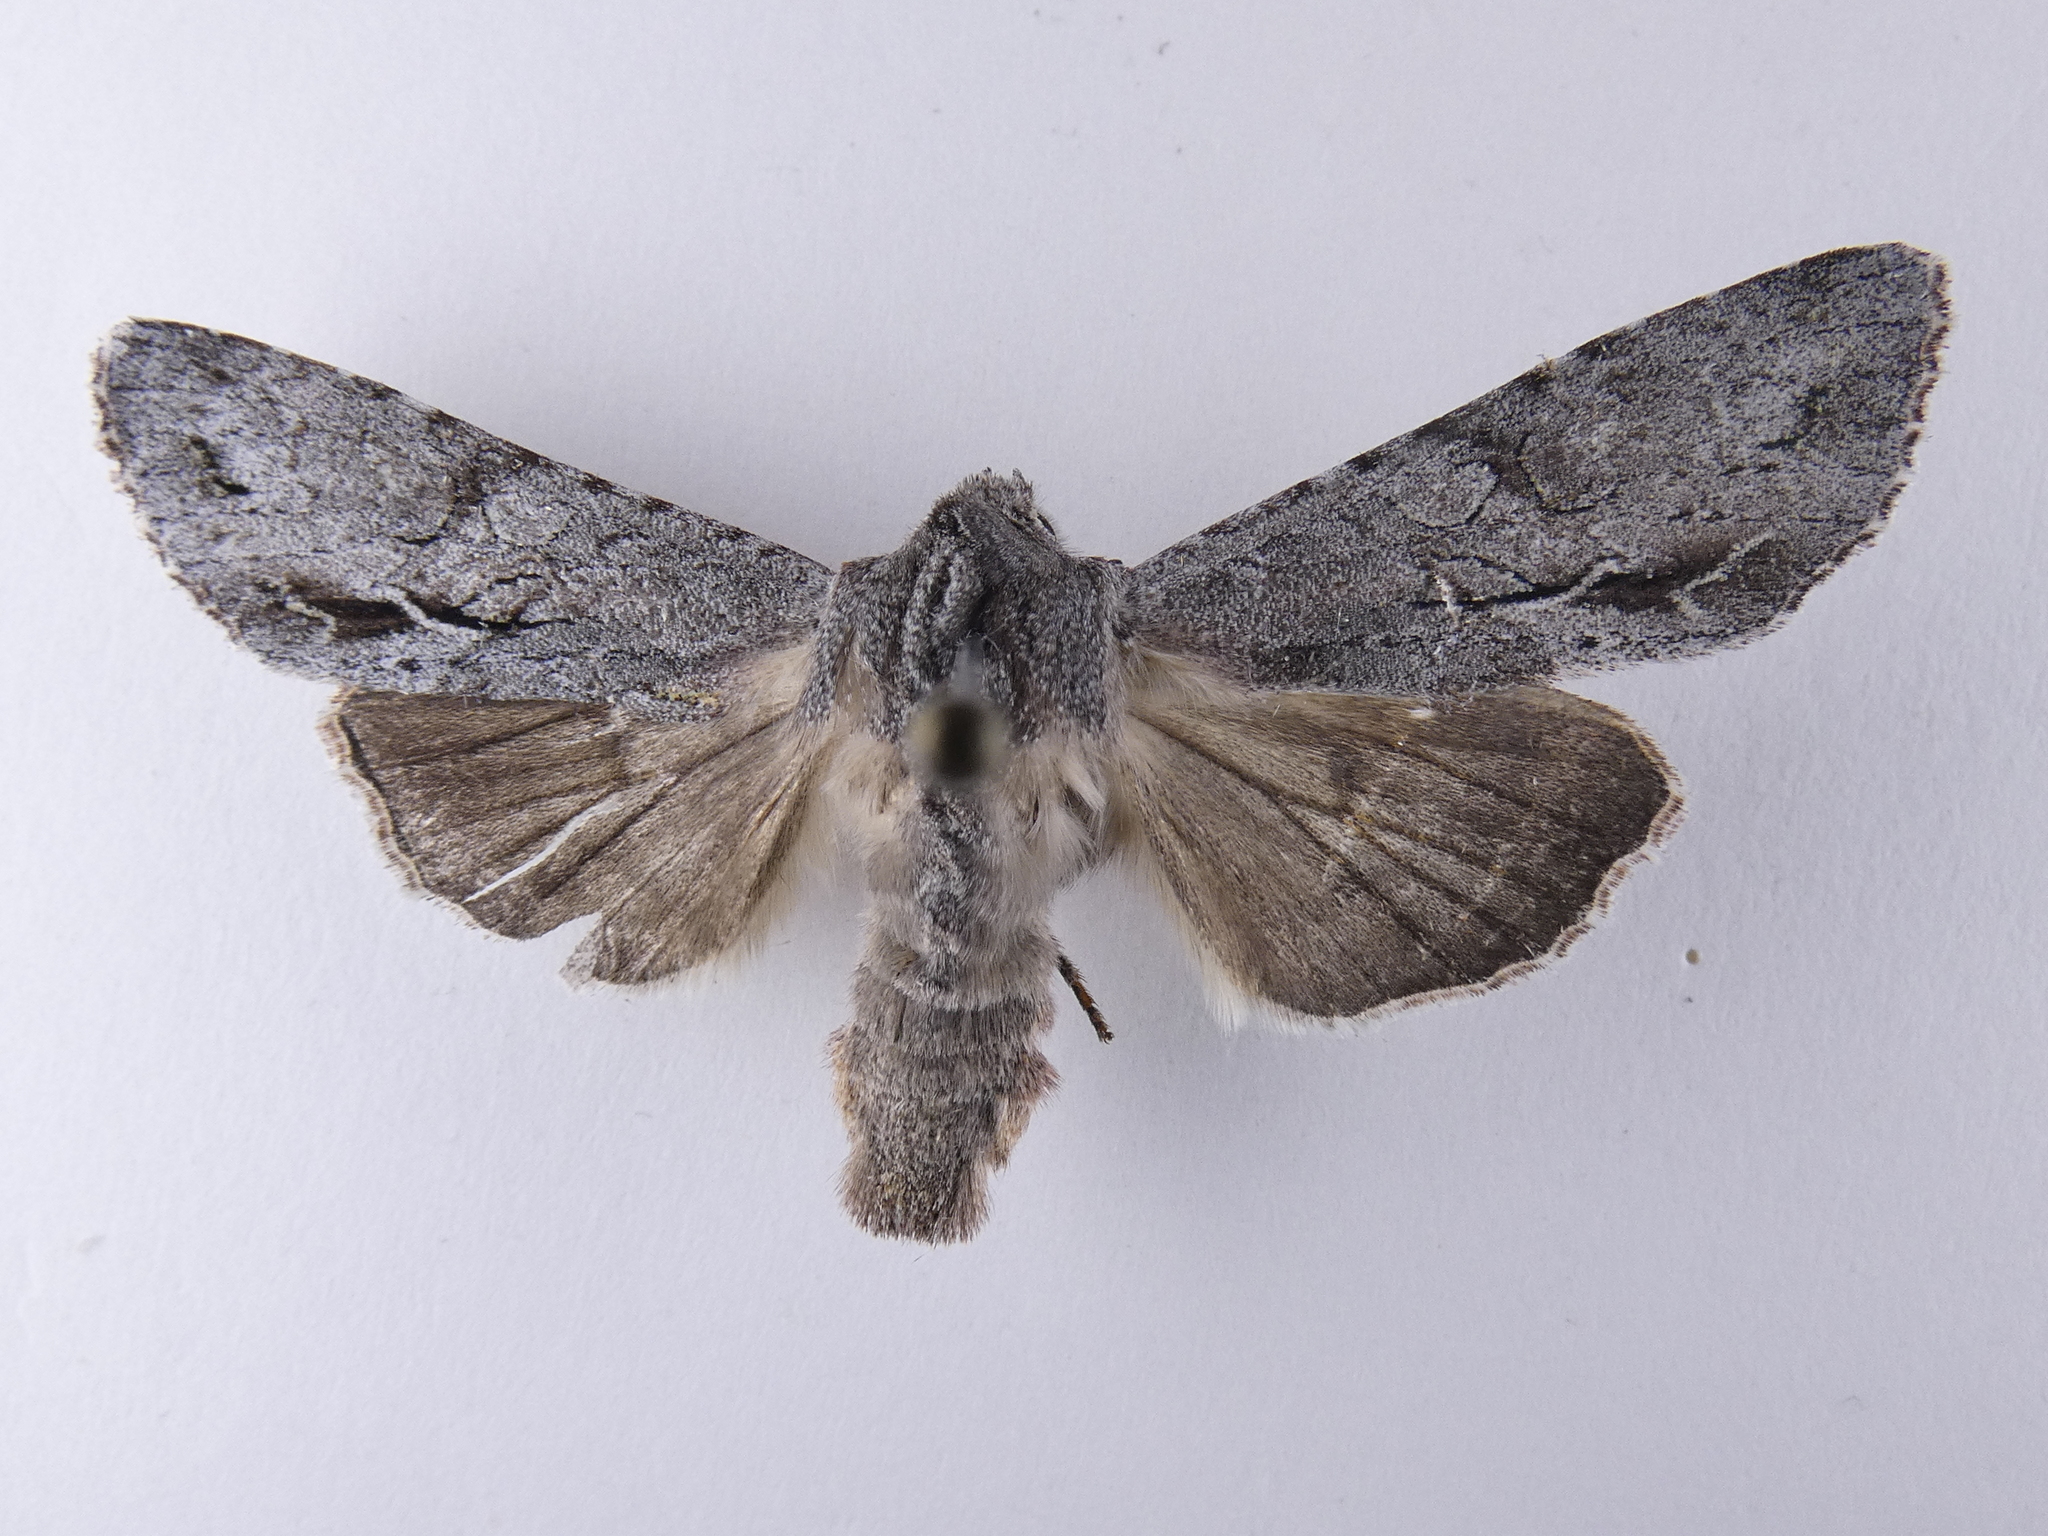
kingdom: Animalia
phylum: Arthropoda
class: Insecta
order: Lepidoptera
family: Noctuidae
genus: Ichneutica
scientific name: Ichneutica
